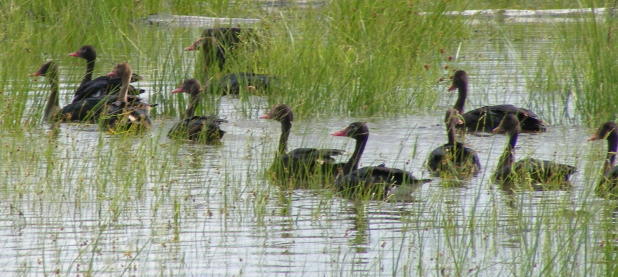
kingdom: Animalia
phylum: Chordata
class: Aves
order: Anseriformes
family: Anatidae
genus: Plectropterus
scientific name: Plectropterus gambensis
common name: Spur-winged goose
